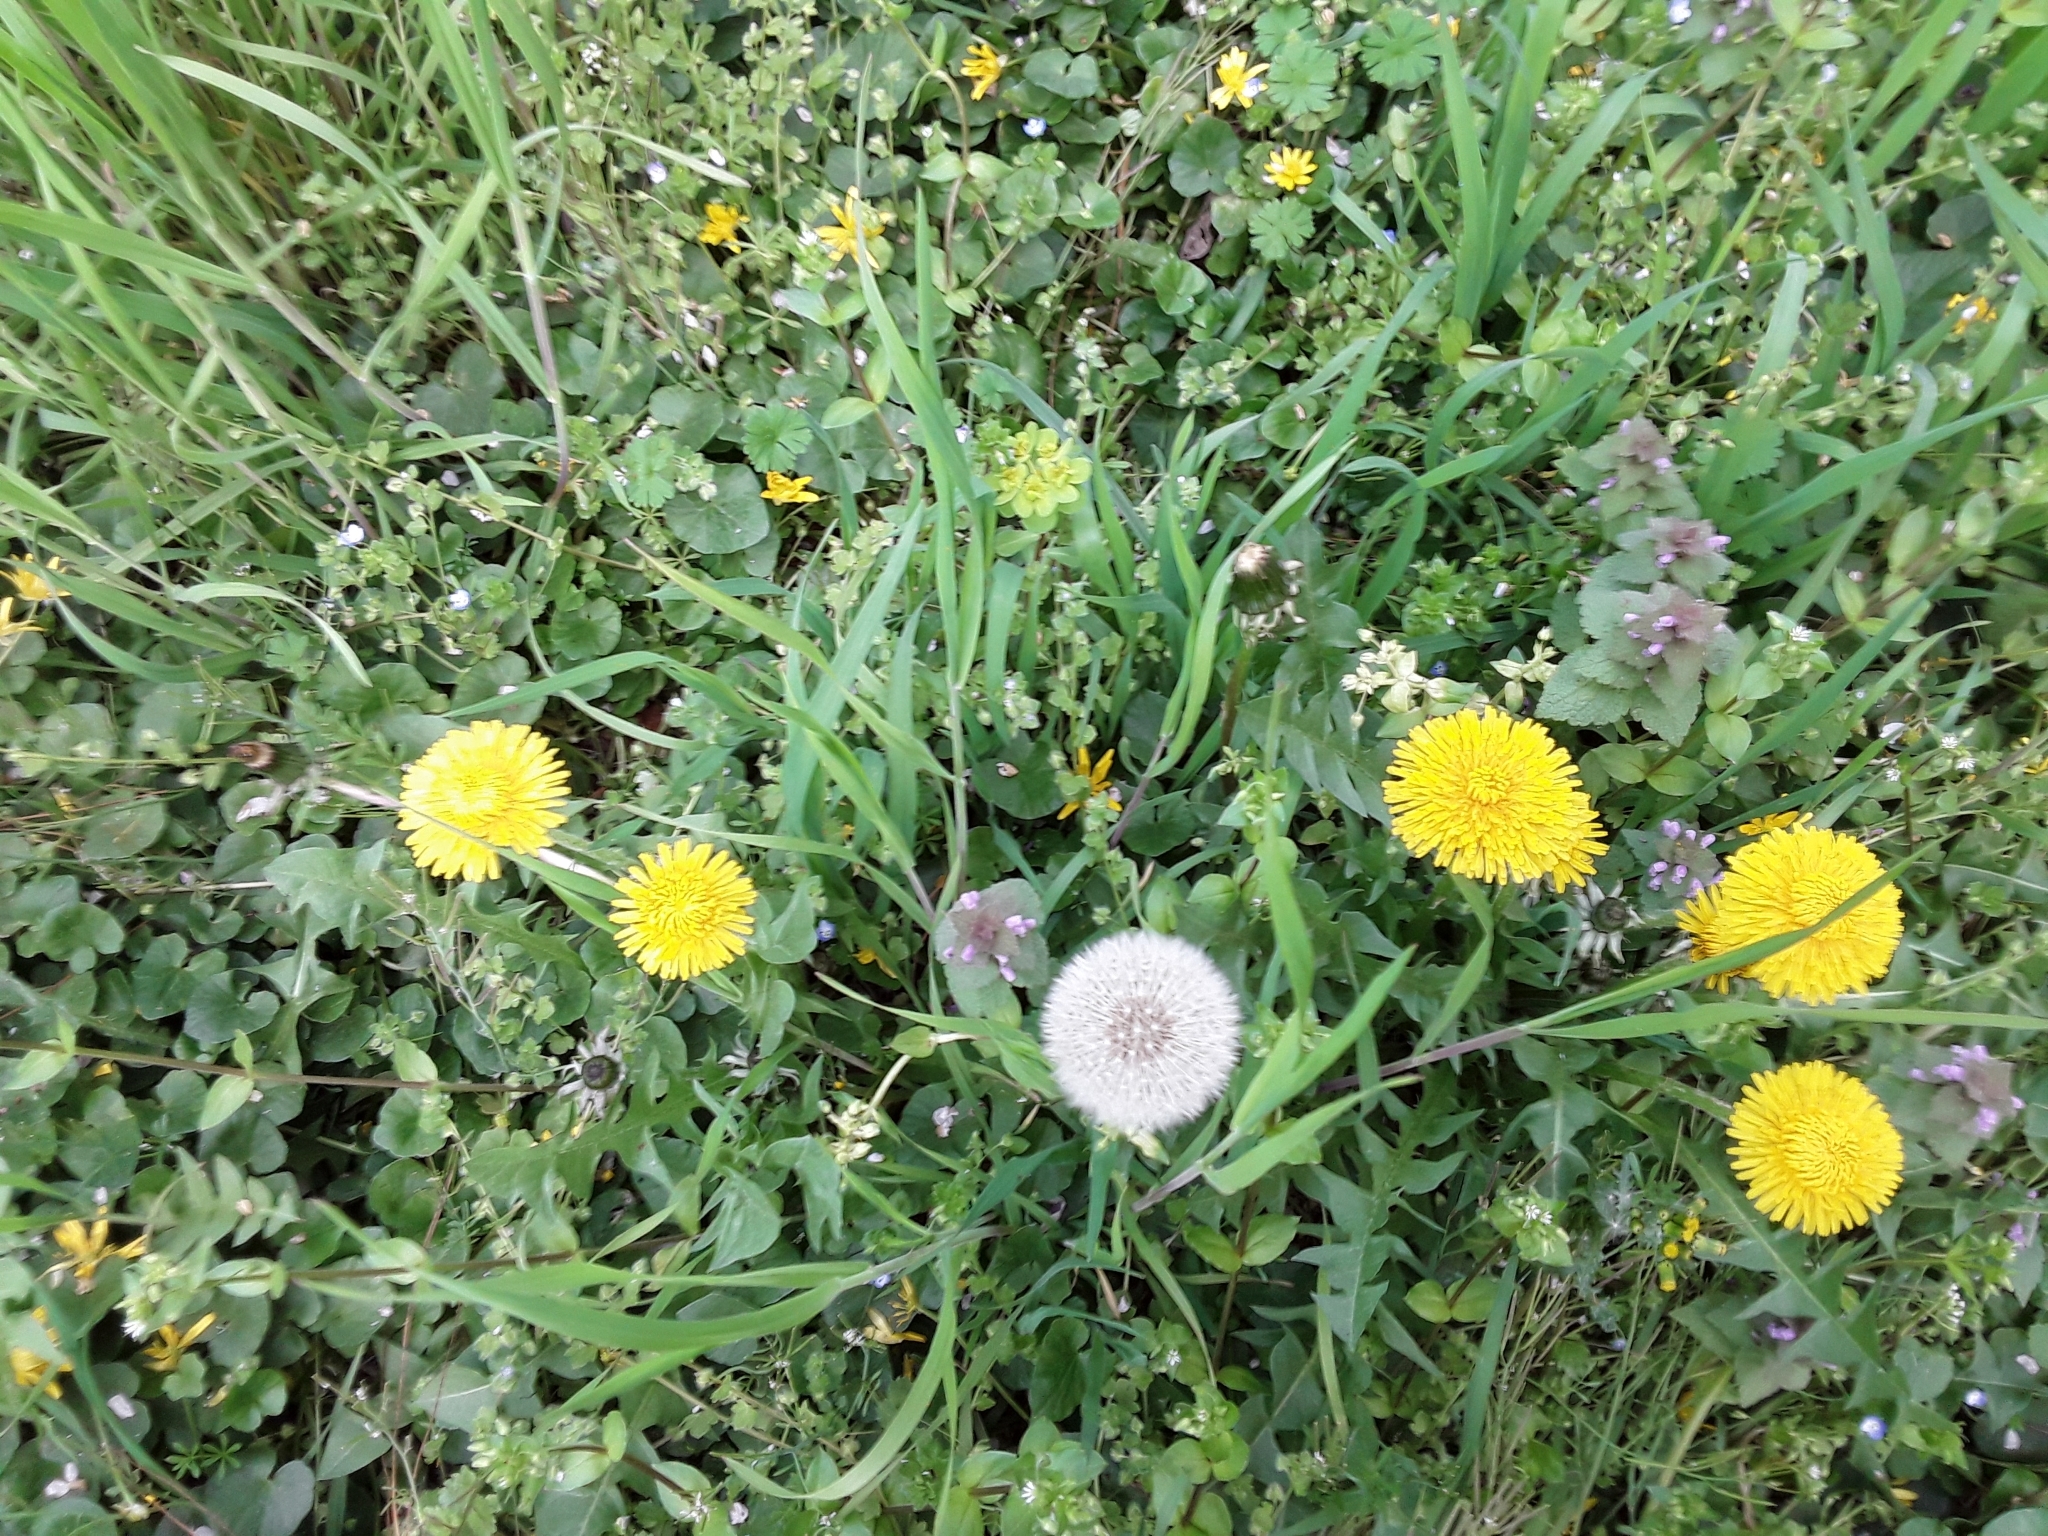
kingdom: Plantae
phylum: Tracheophyta
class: Magnoliopsida
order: Asterales
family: Asteraceae
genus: Taraxacum
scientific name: Taraxacum officinale
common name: Common dandelion
